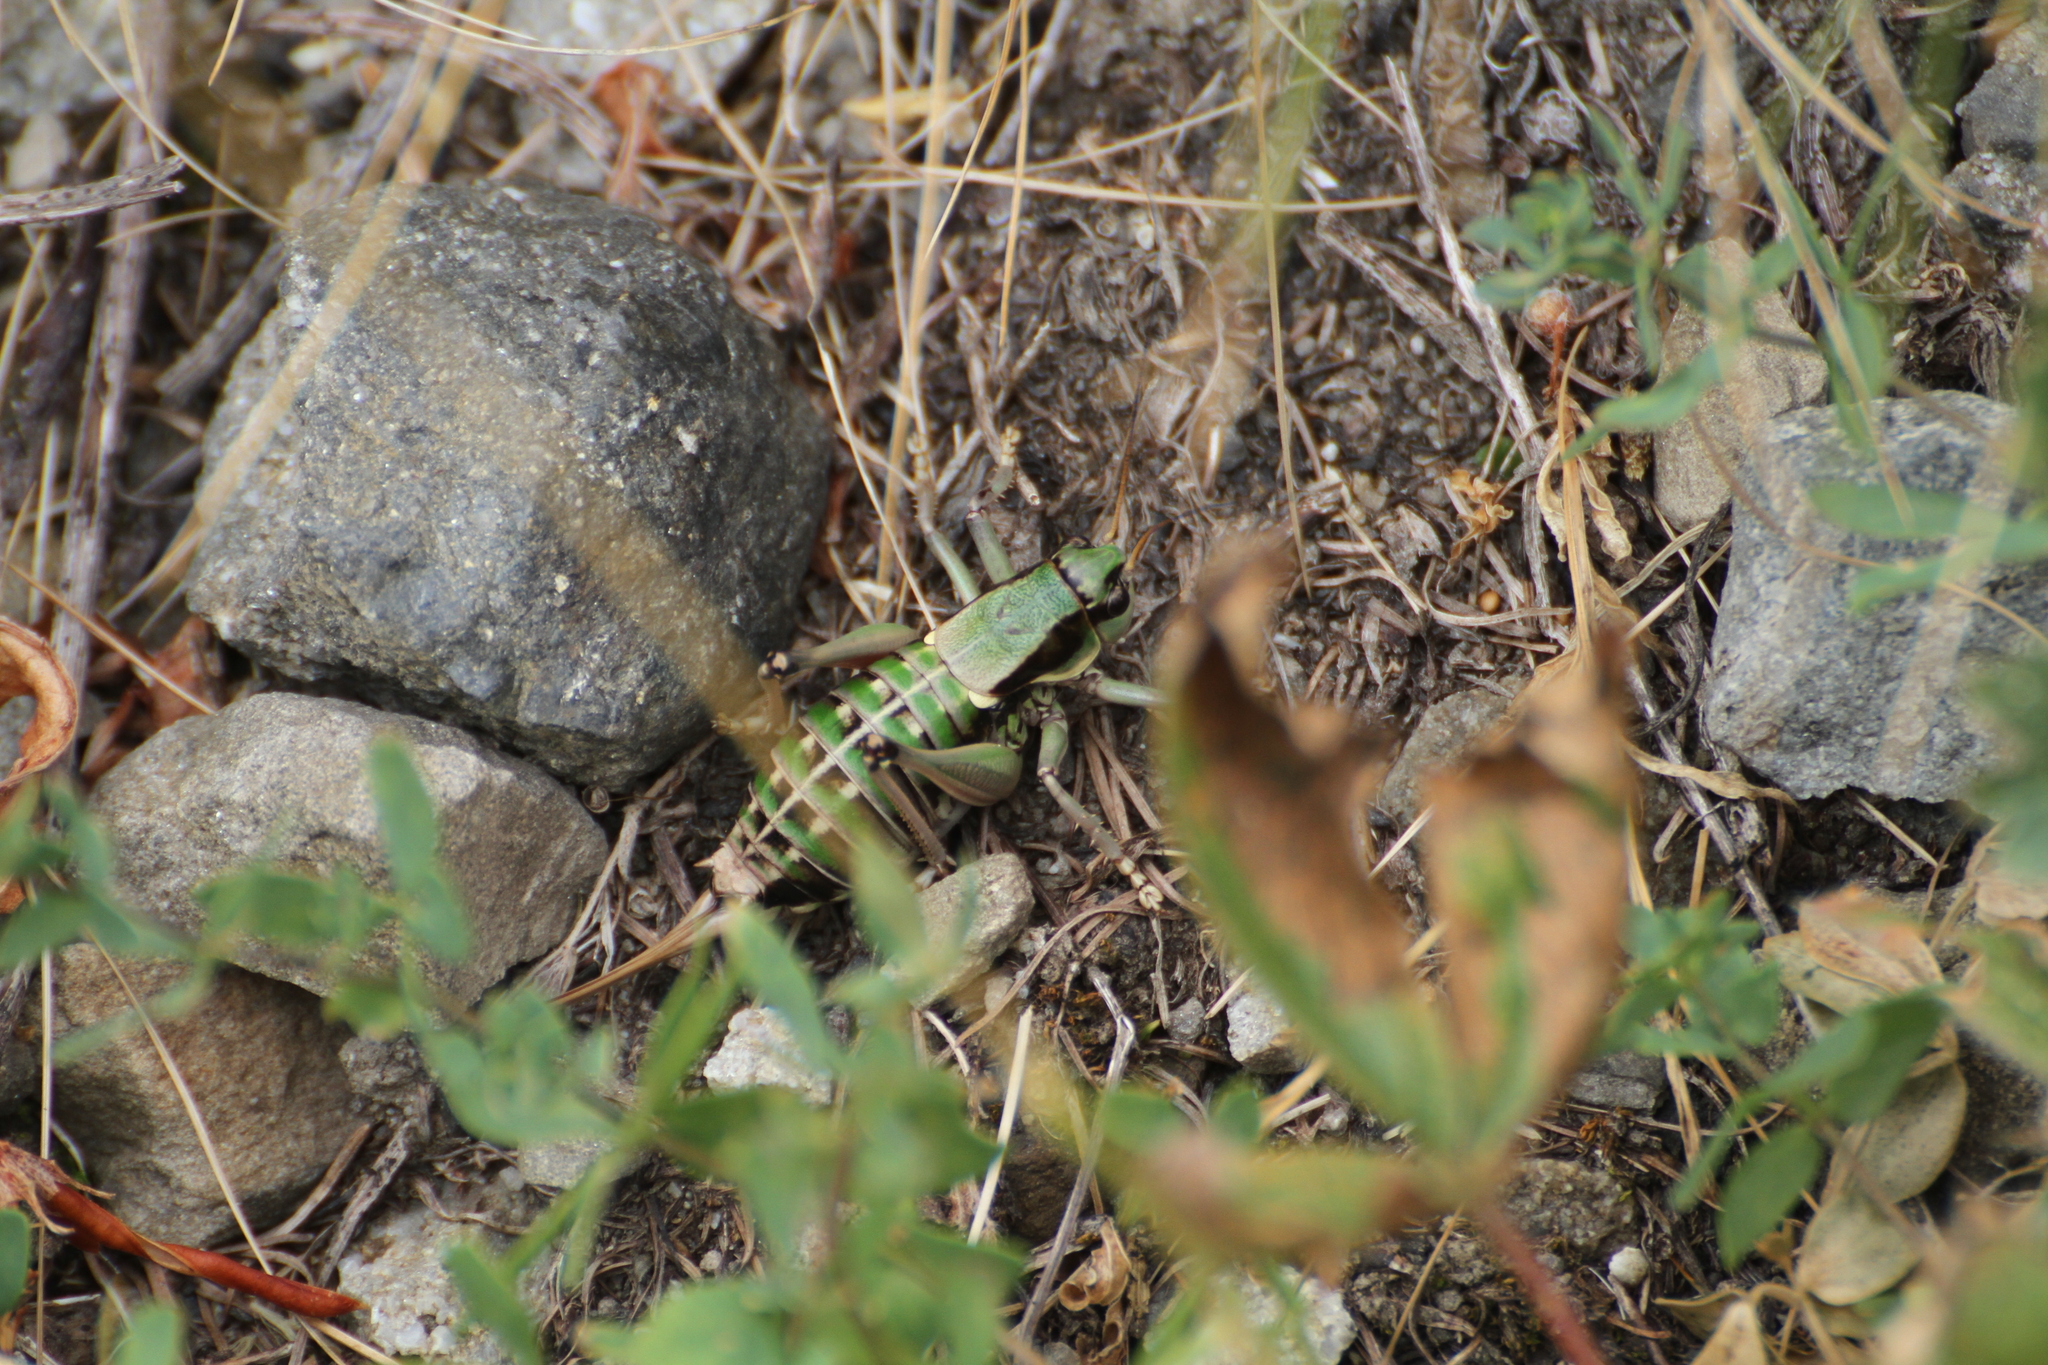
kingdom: Animalia
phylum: Arthropoda
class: Insecta
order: Orthoptera
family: Tettigoniidae
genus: Anonconotus
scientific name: Anonconotus ghilianii
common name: Ghiliani's alpine bush-cricket
